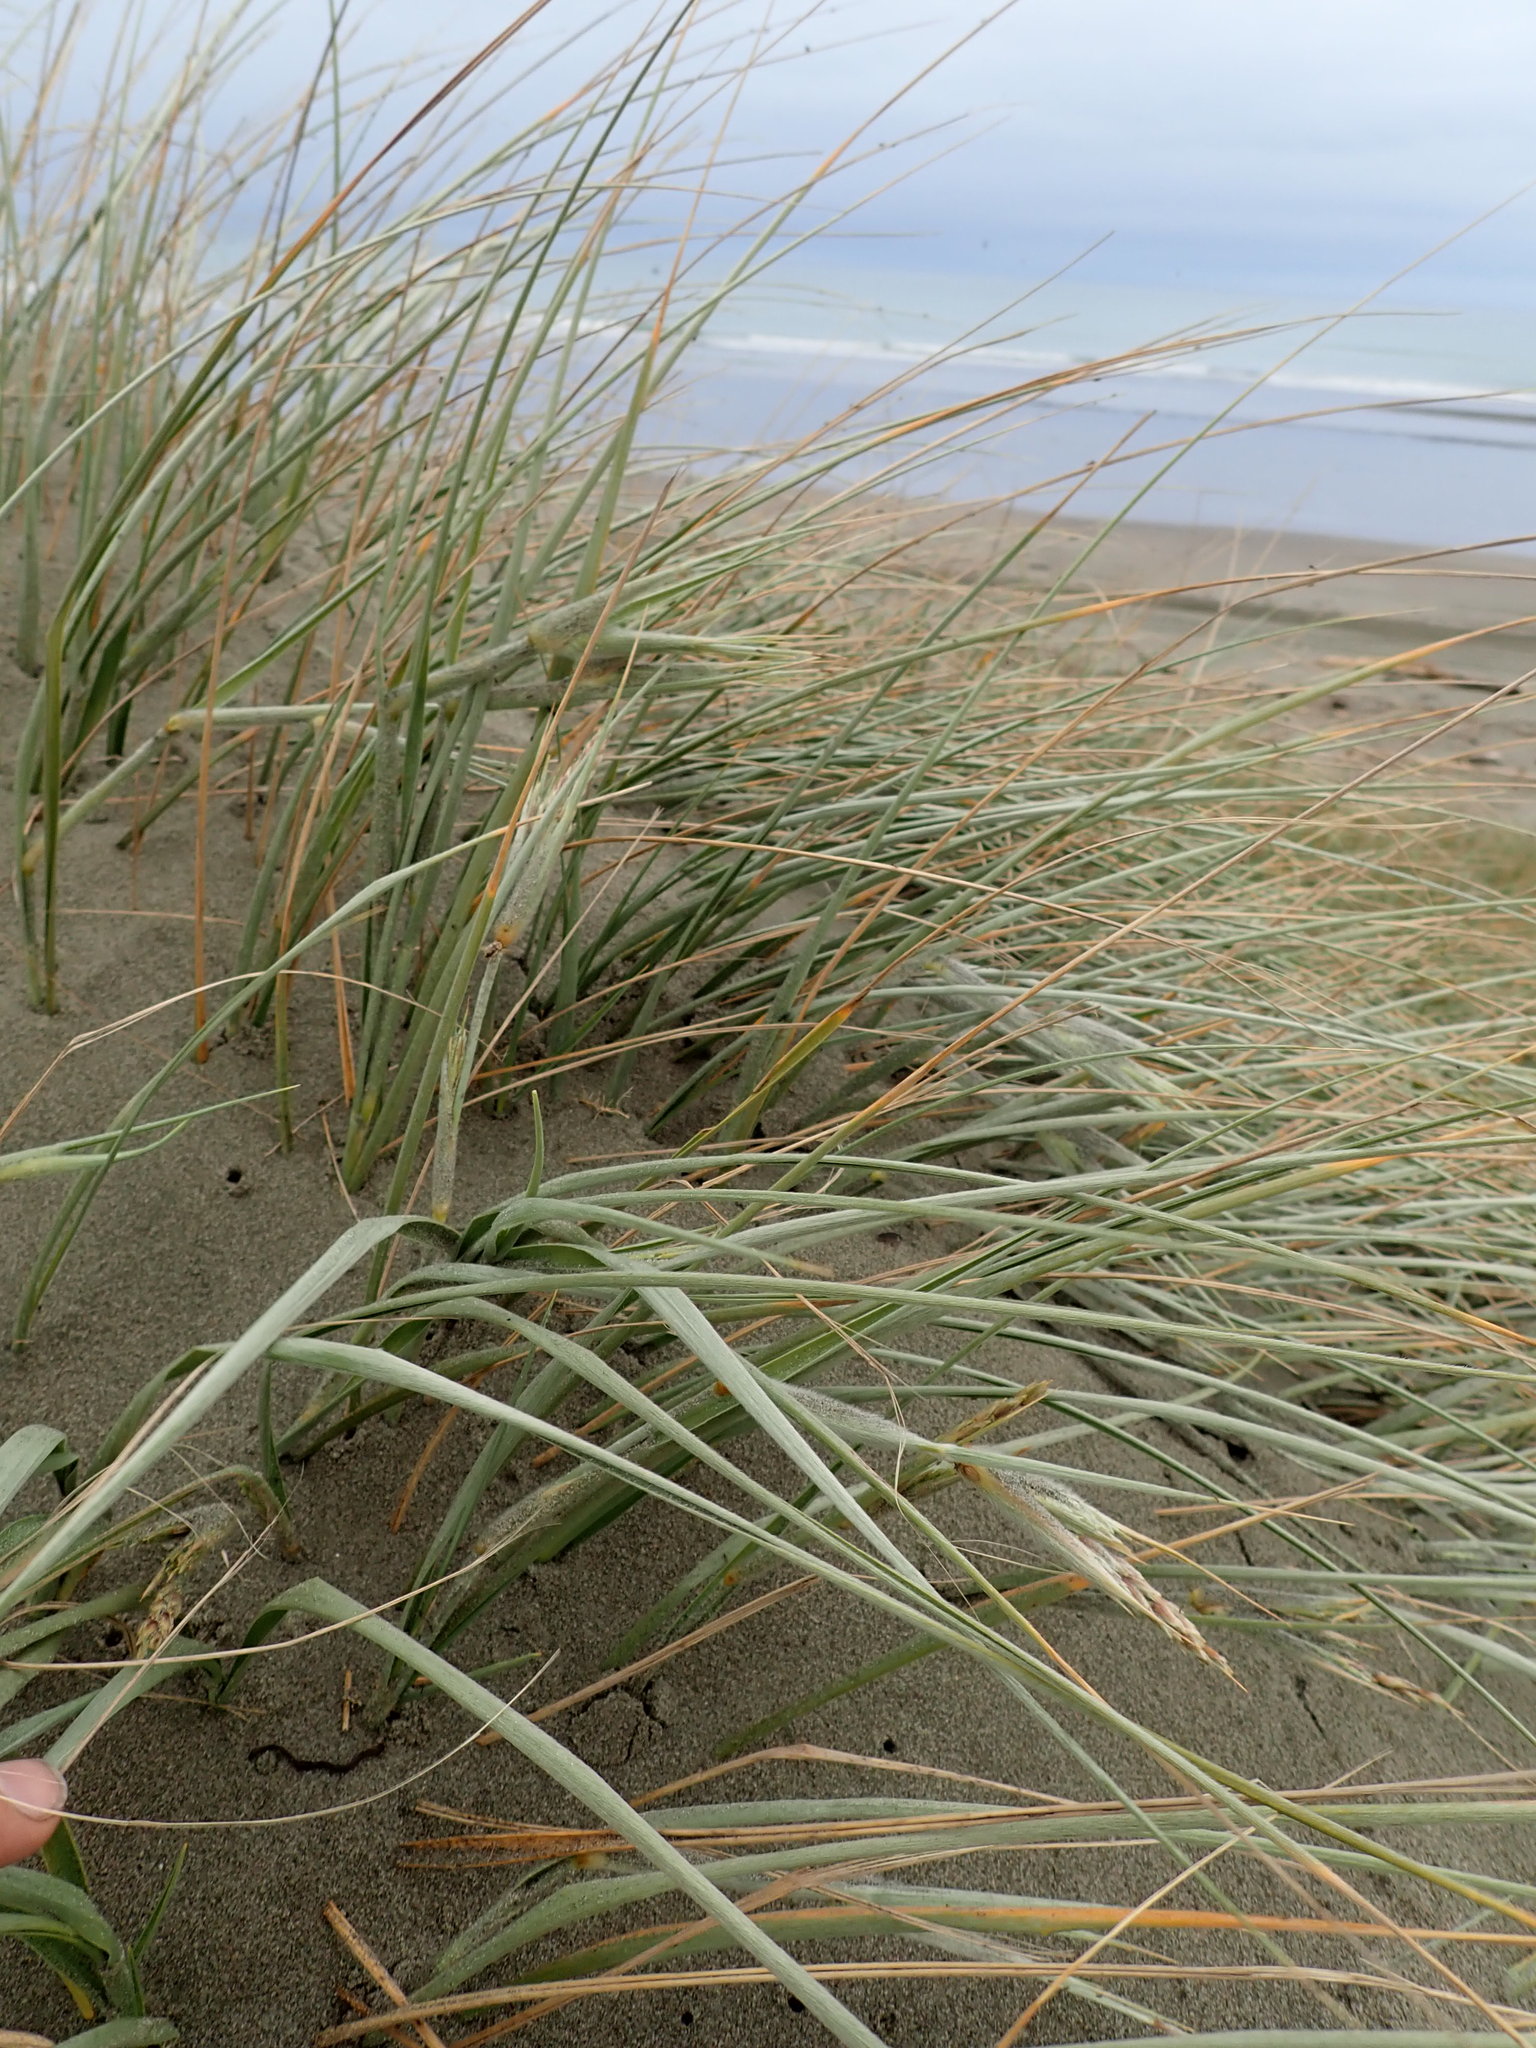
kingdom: Plantae
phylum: Tracheophyta
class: Liliopsida
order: Poales
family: Poaceae
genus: Spinifex
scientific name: Spinifex sericeus
